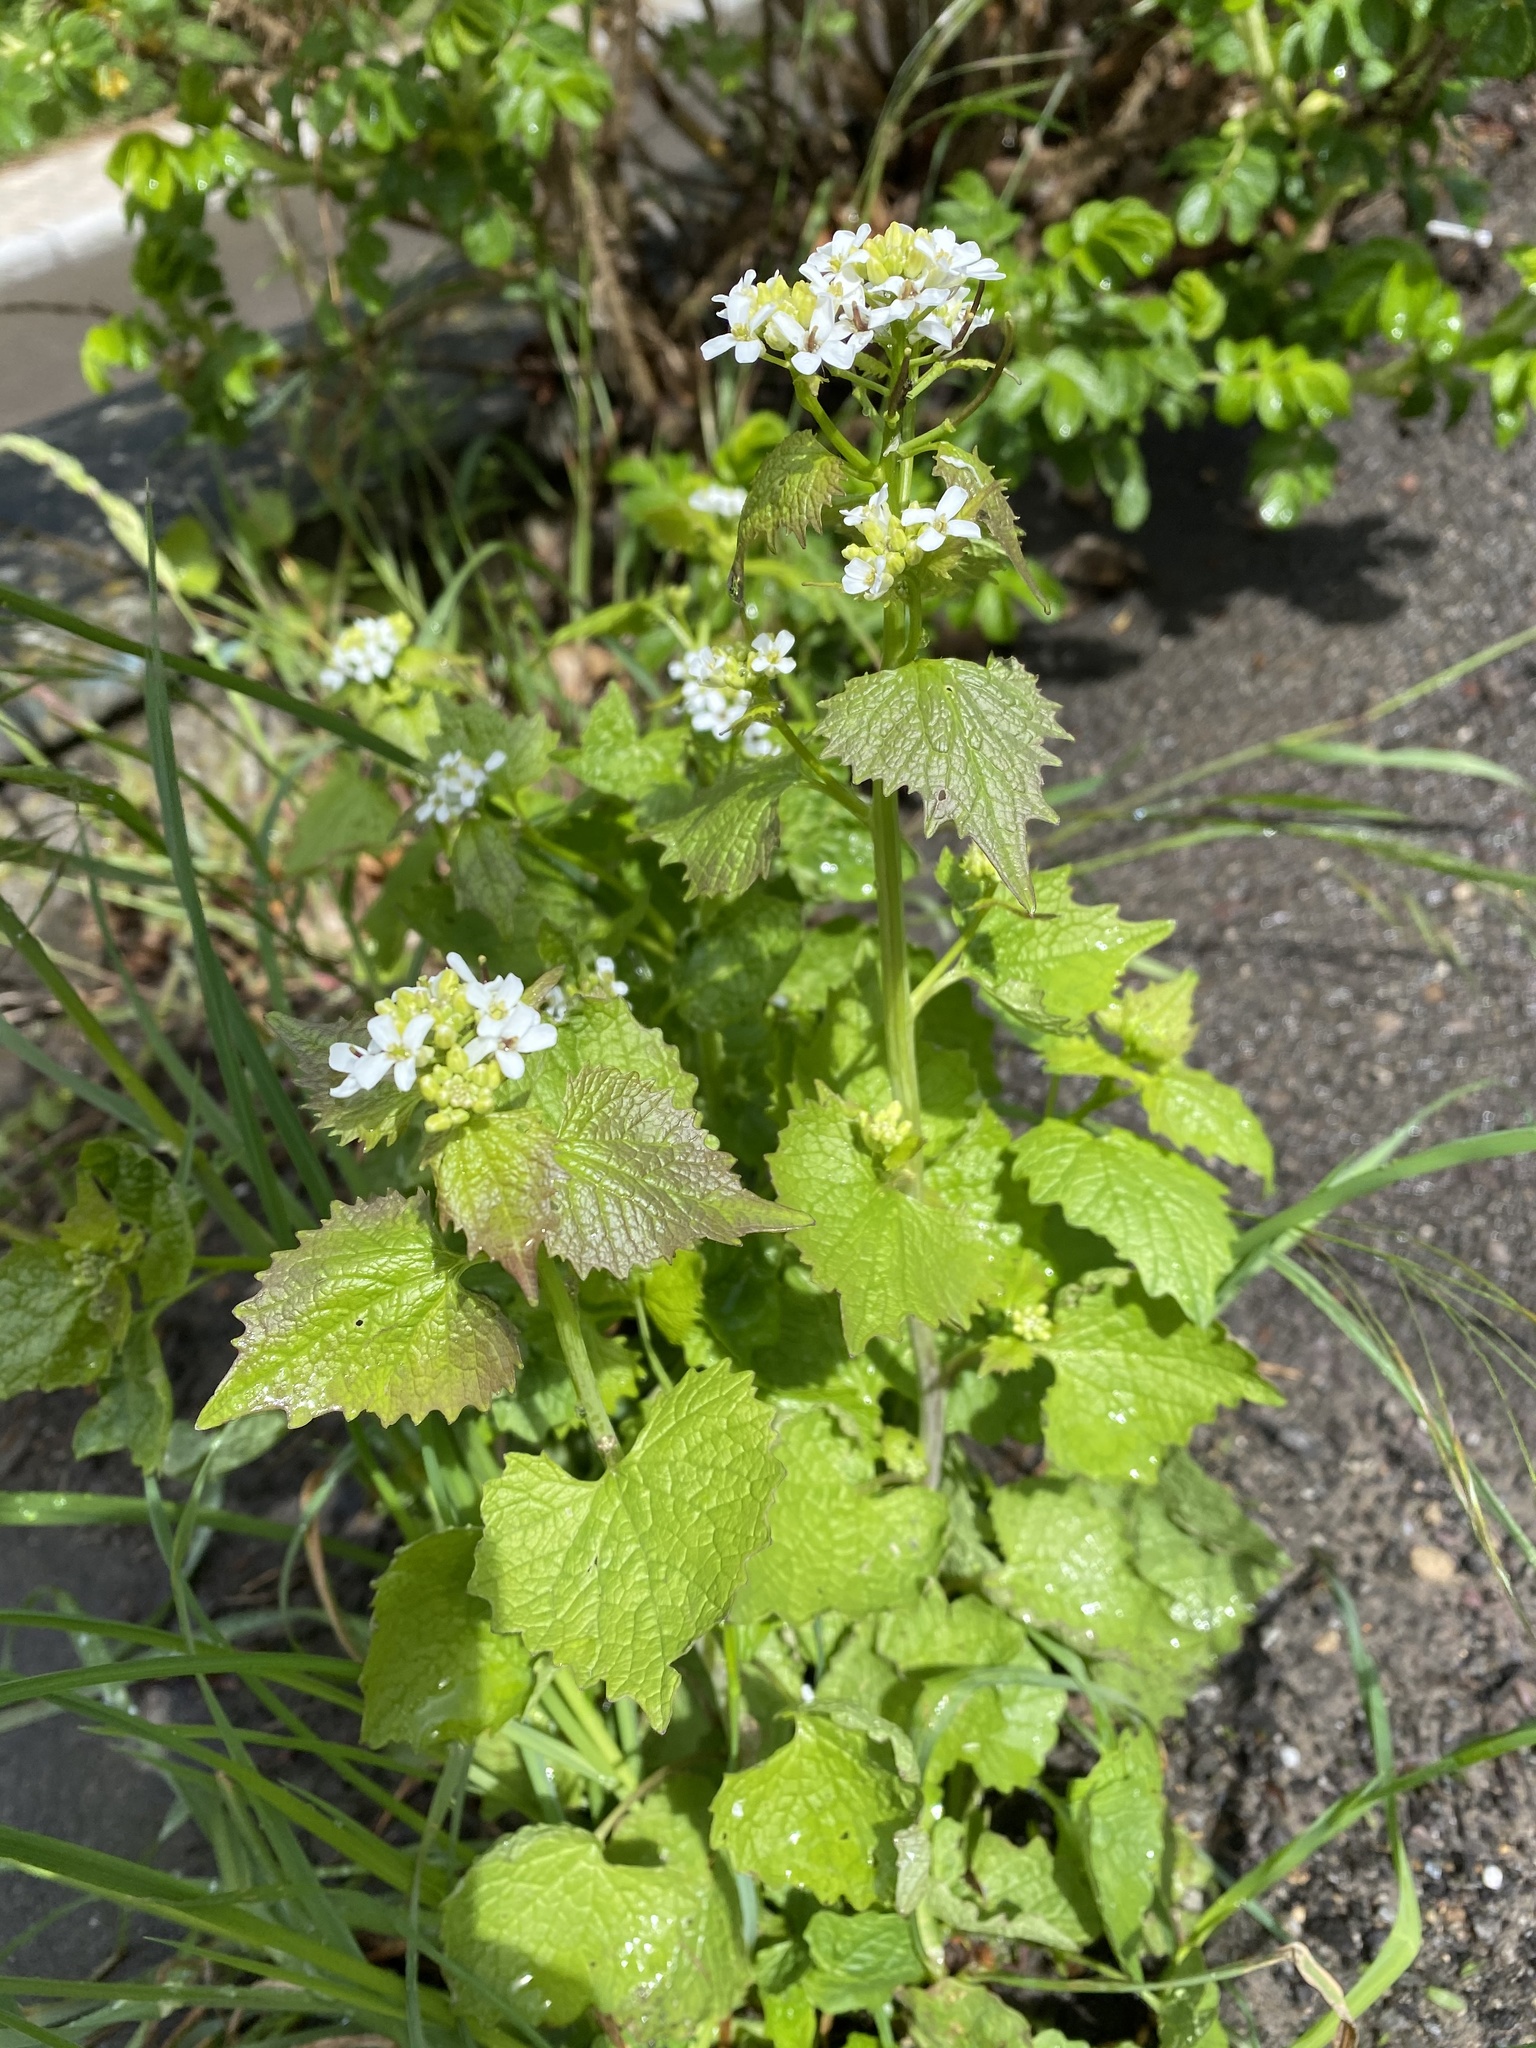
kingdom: Plantae
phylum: Tracheophyta
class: Magnoliopsida
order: Brassicales
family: Brassicaceae
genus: Alliaria
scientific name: Alliaria petiolata
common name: Garlic mustard
